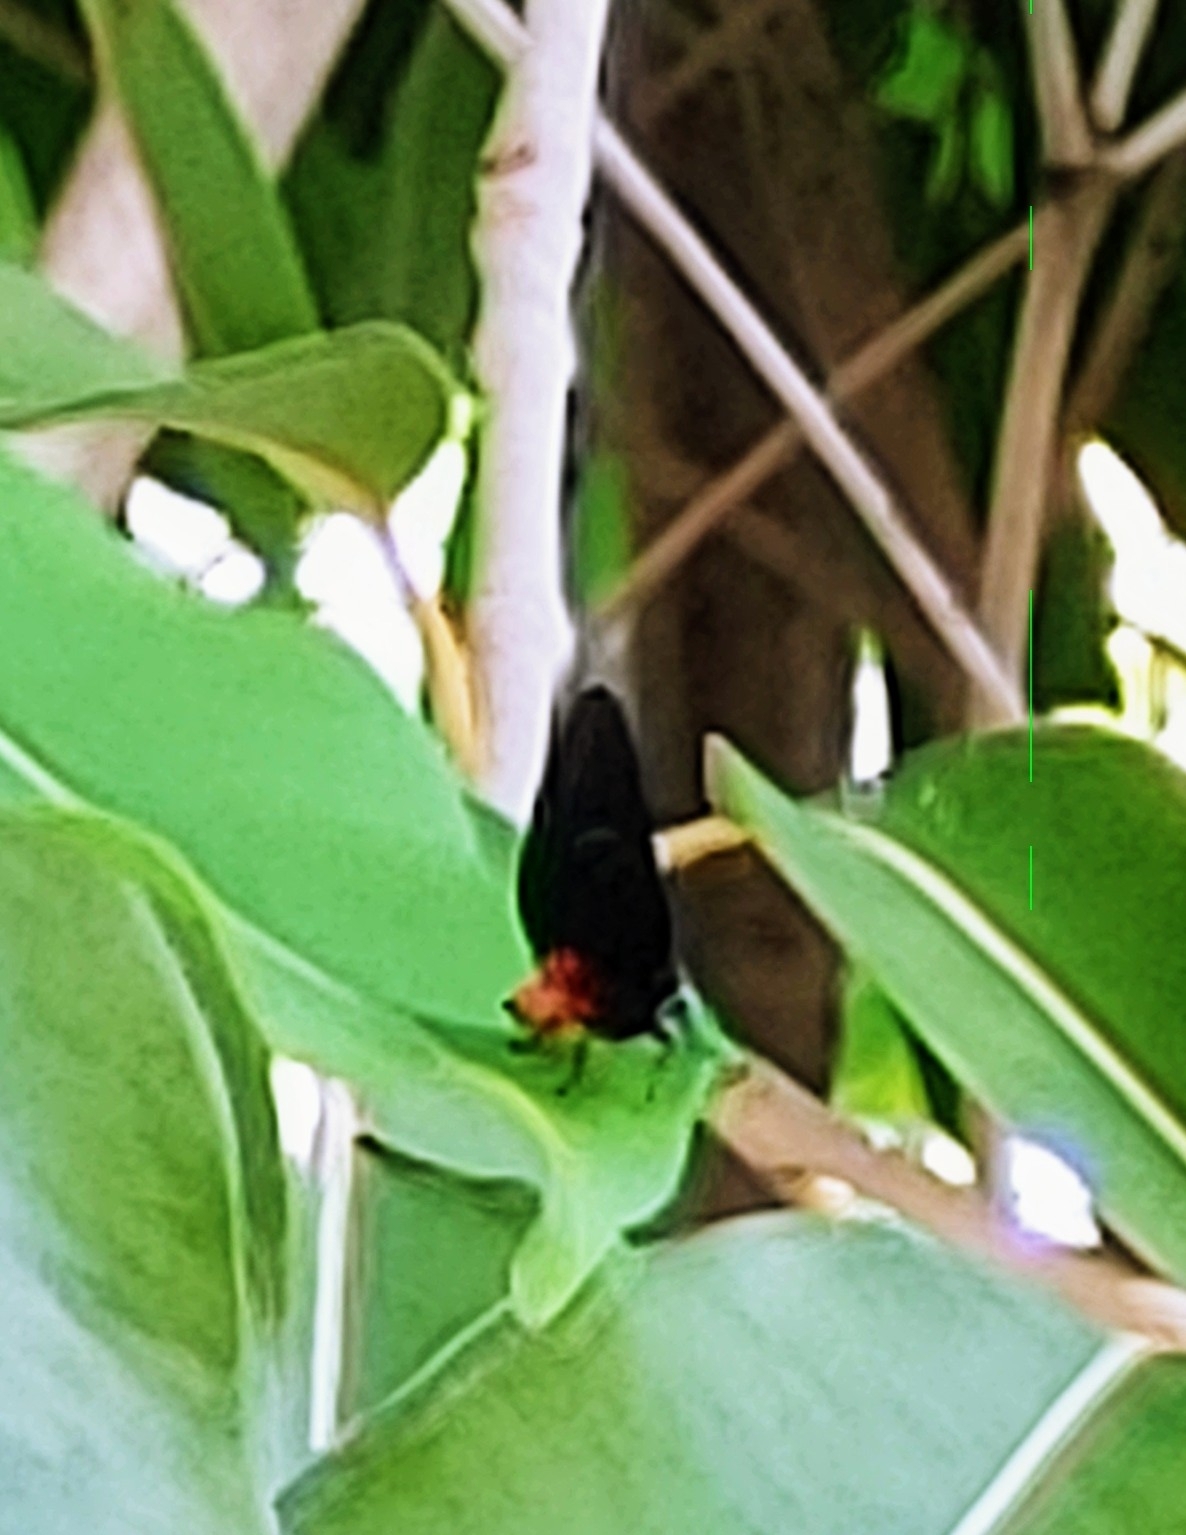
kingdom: Animalia
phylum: Arthropoda
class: Insecta
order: Lepidoptera
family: Lycaenidae
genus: Eumaeus
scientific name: Eumaeus atala
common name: Atala
